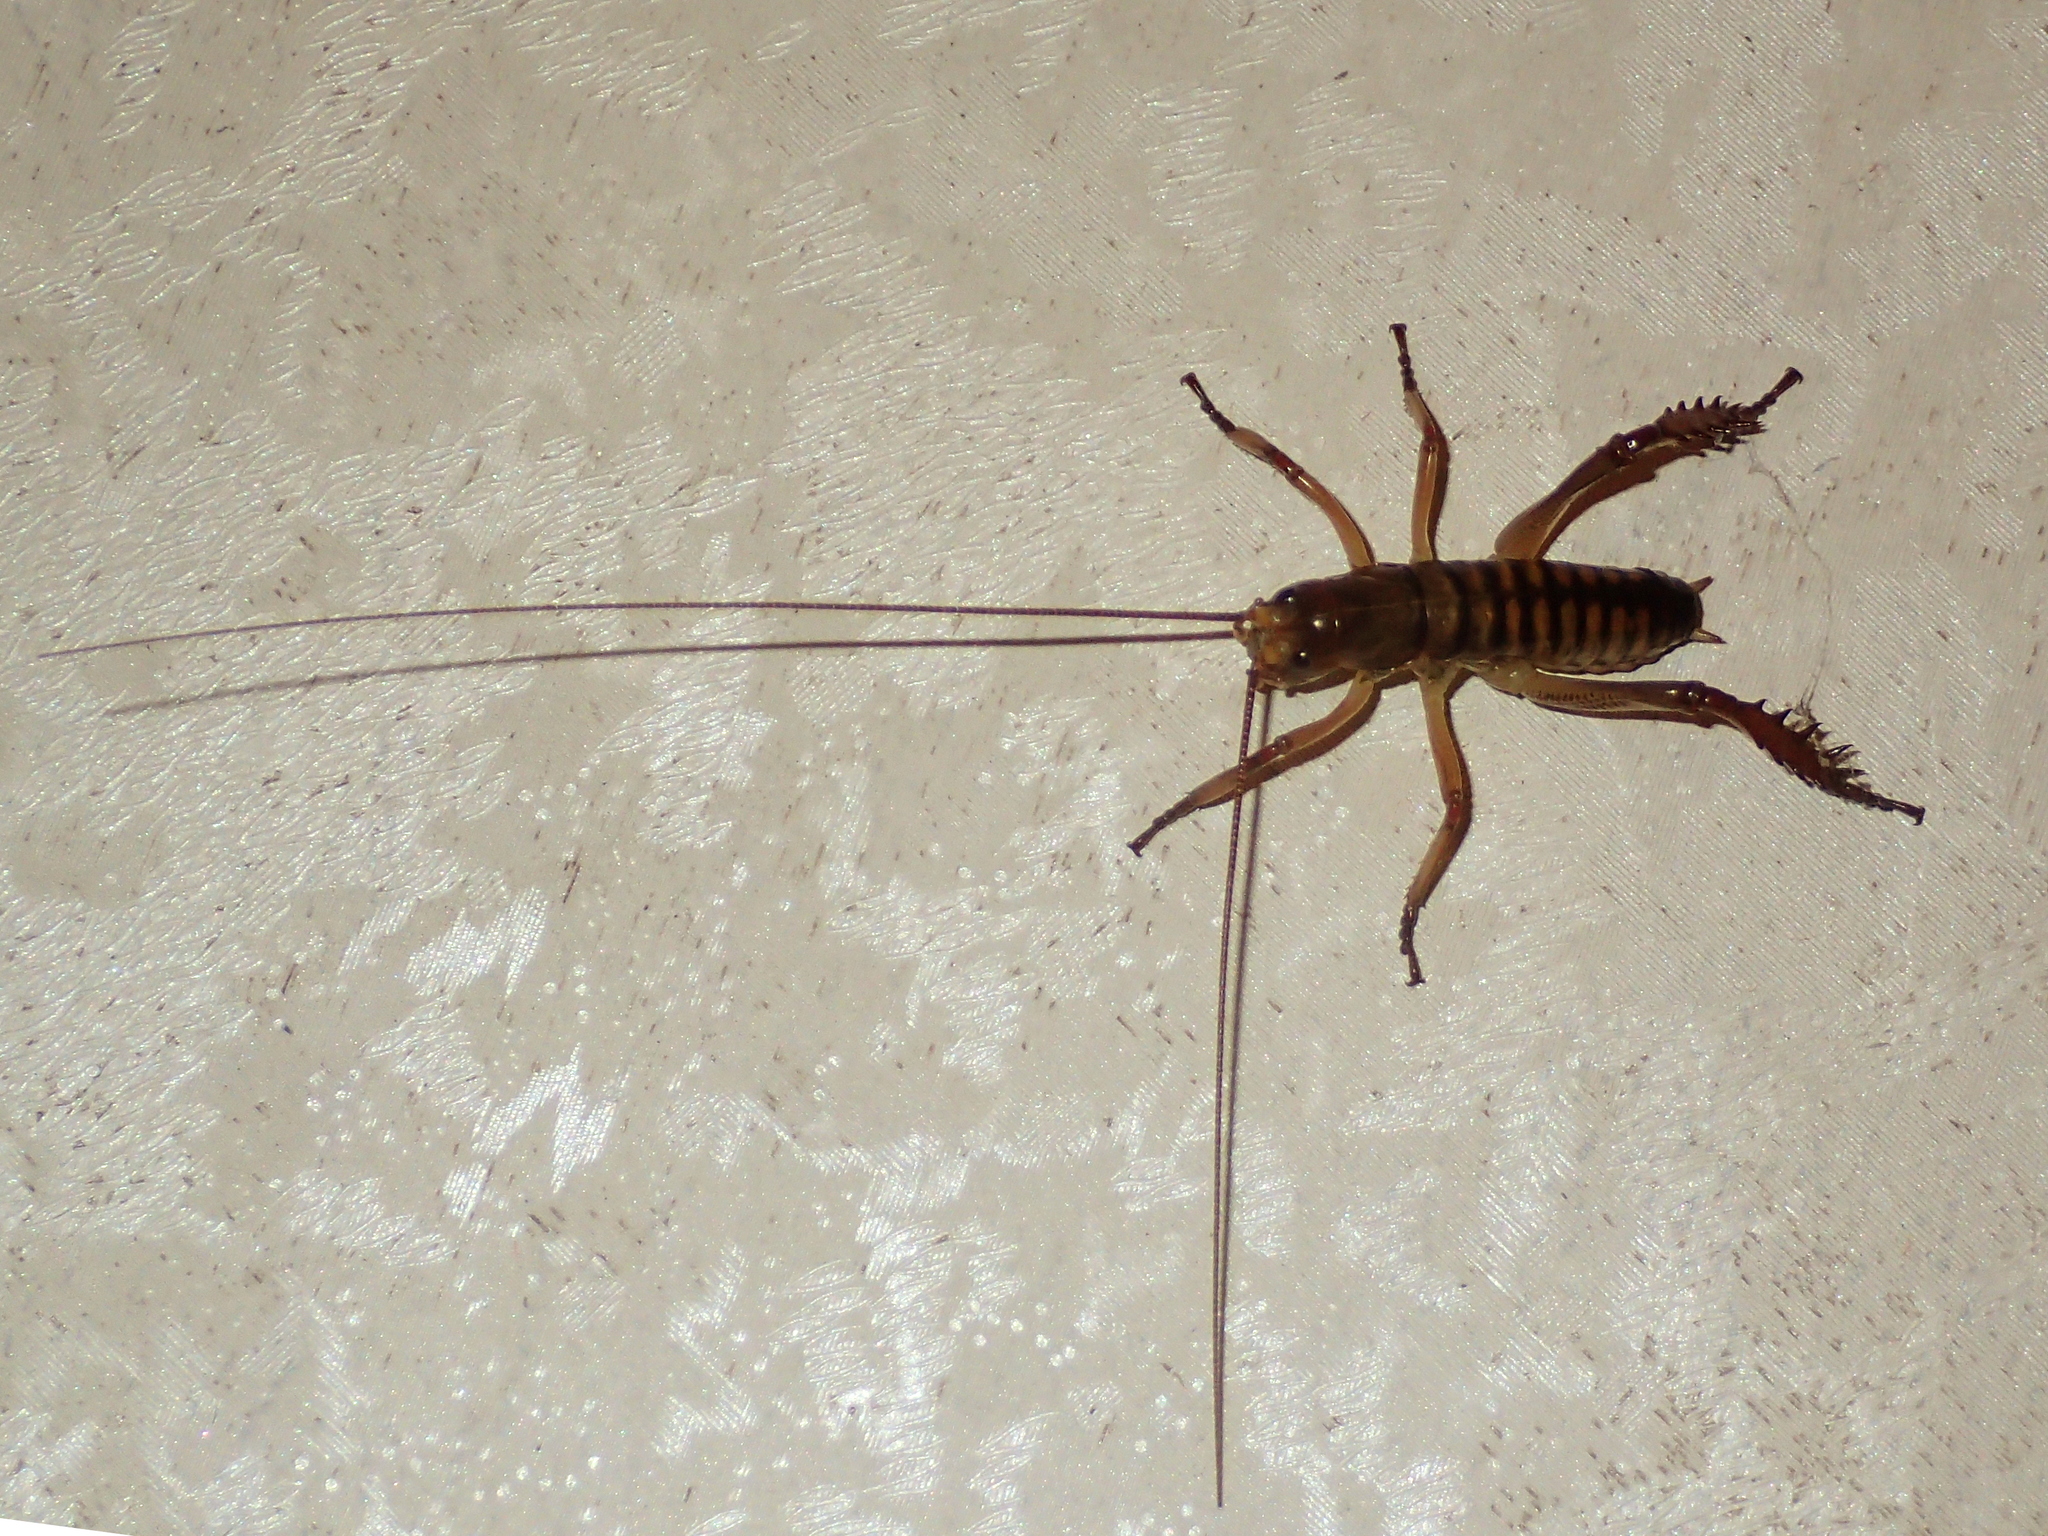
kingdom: Animalia
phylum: Arthropoda
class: Insecta
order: Orthoptera
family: Anostostomatidae
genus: Hemideina
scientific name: Hemideina crassidens
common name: Wellington tree weta
